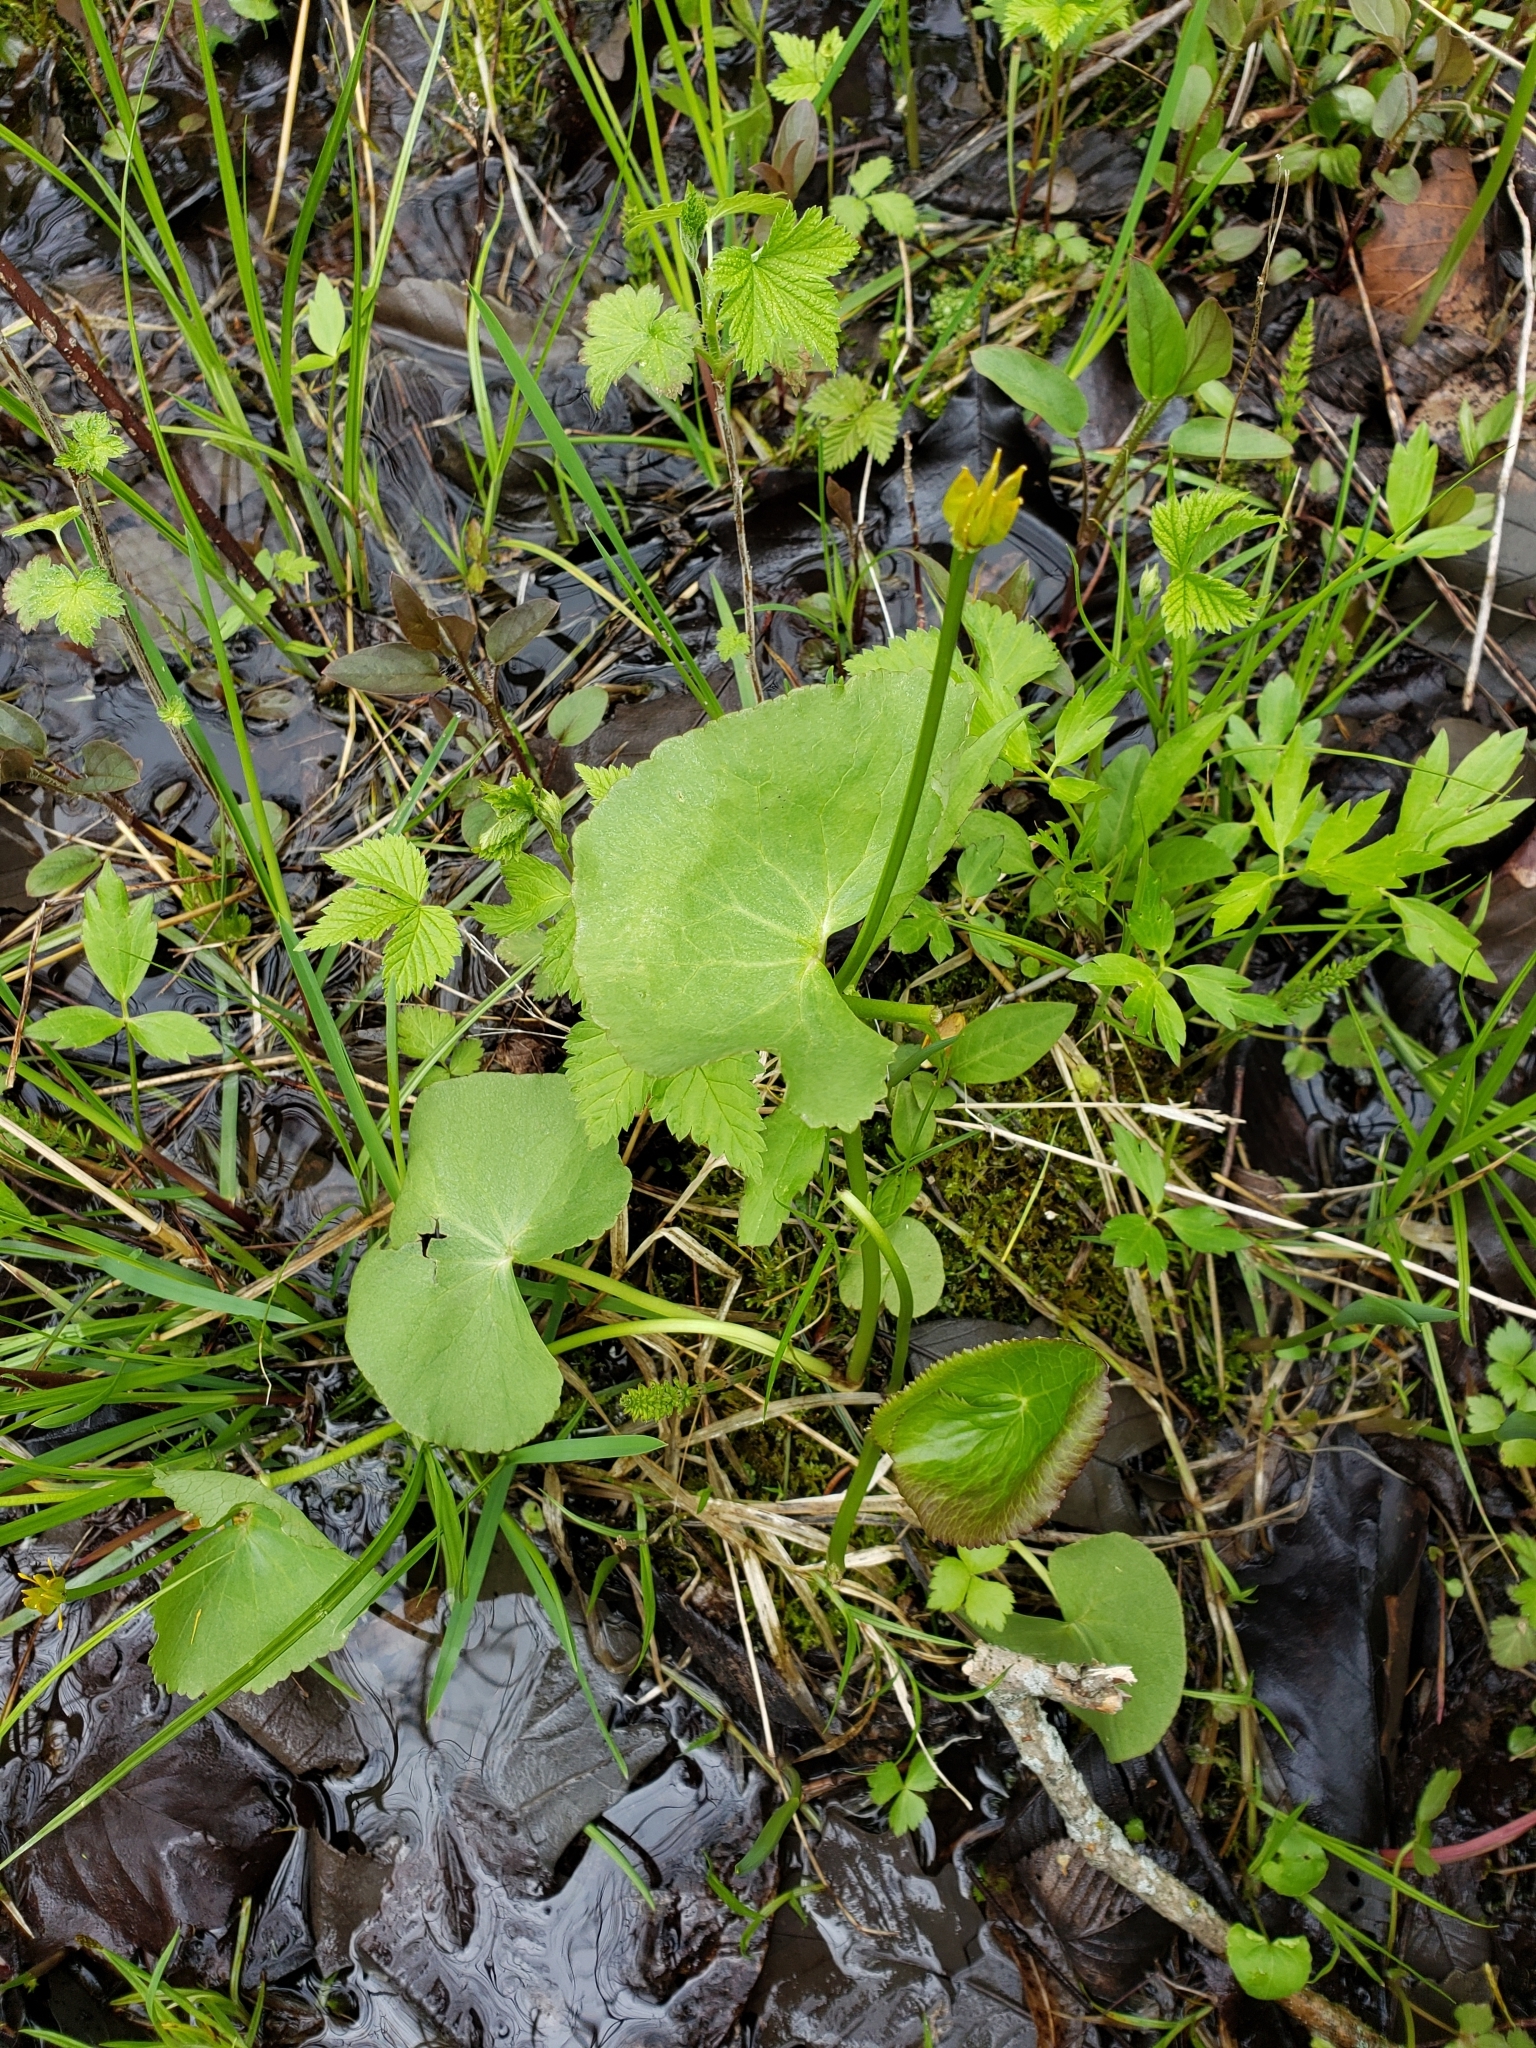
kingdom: Plantae
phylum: Tracheophyta
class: Magnoliopsida
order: Ranunculales
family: Ranunculaceae
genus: Caltha
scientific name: Caltha palustris
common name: Marsh marigold
